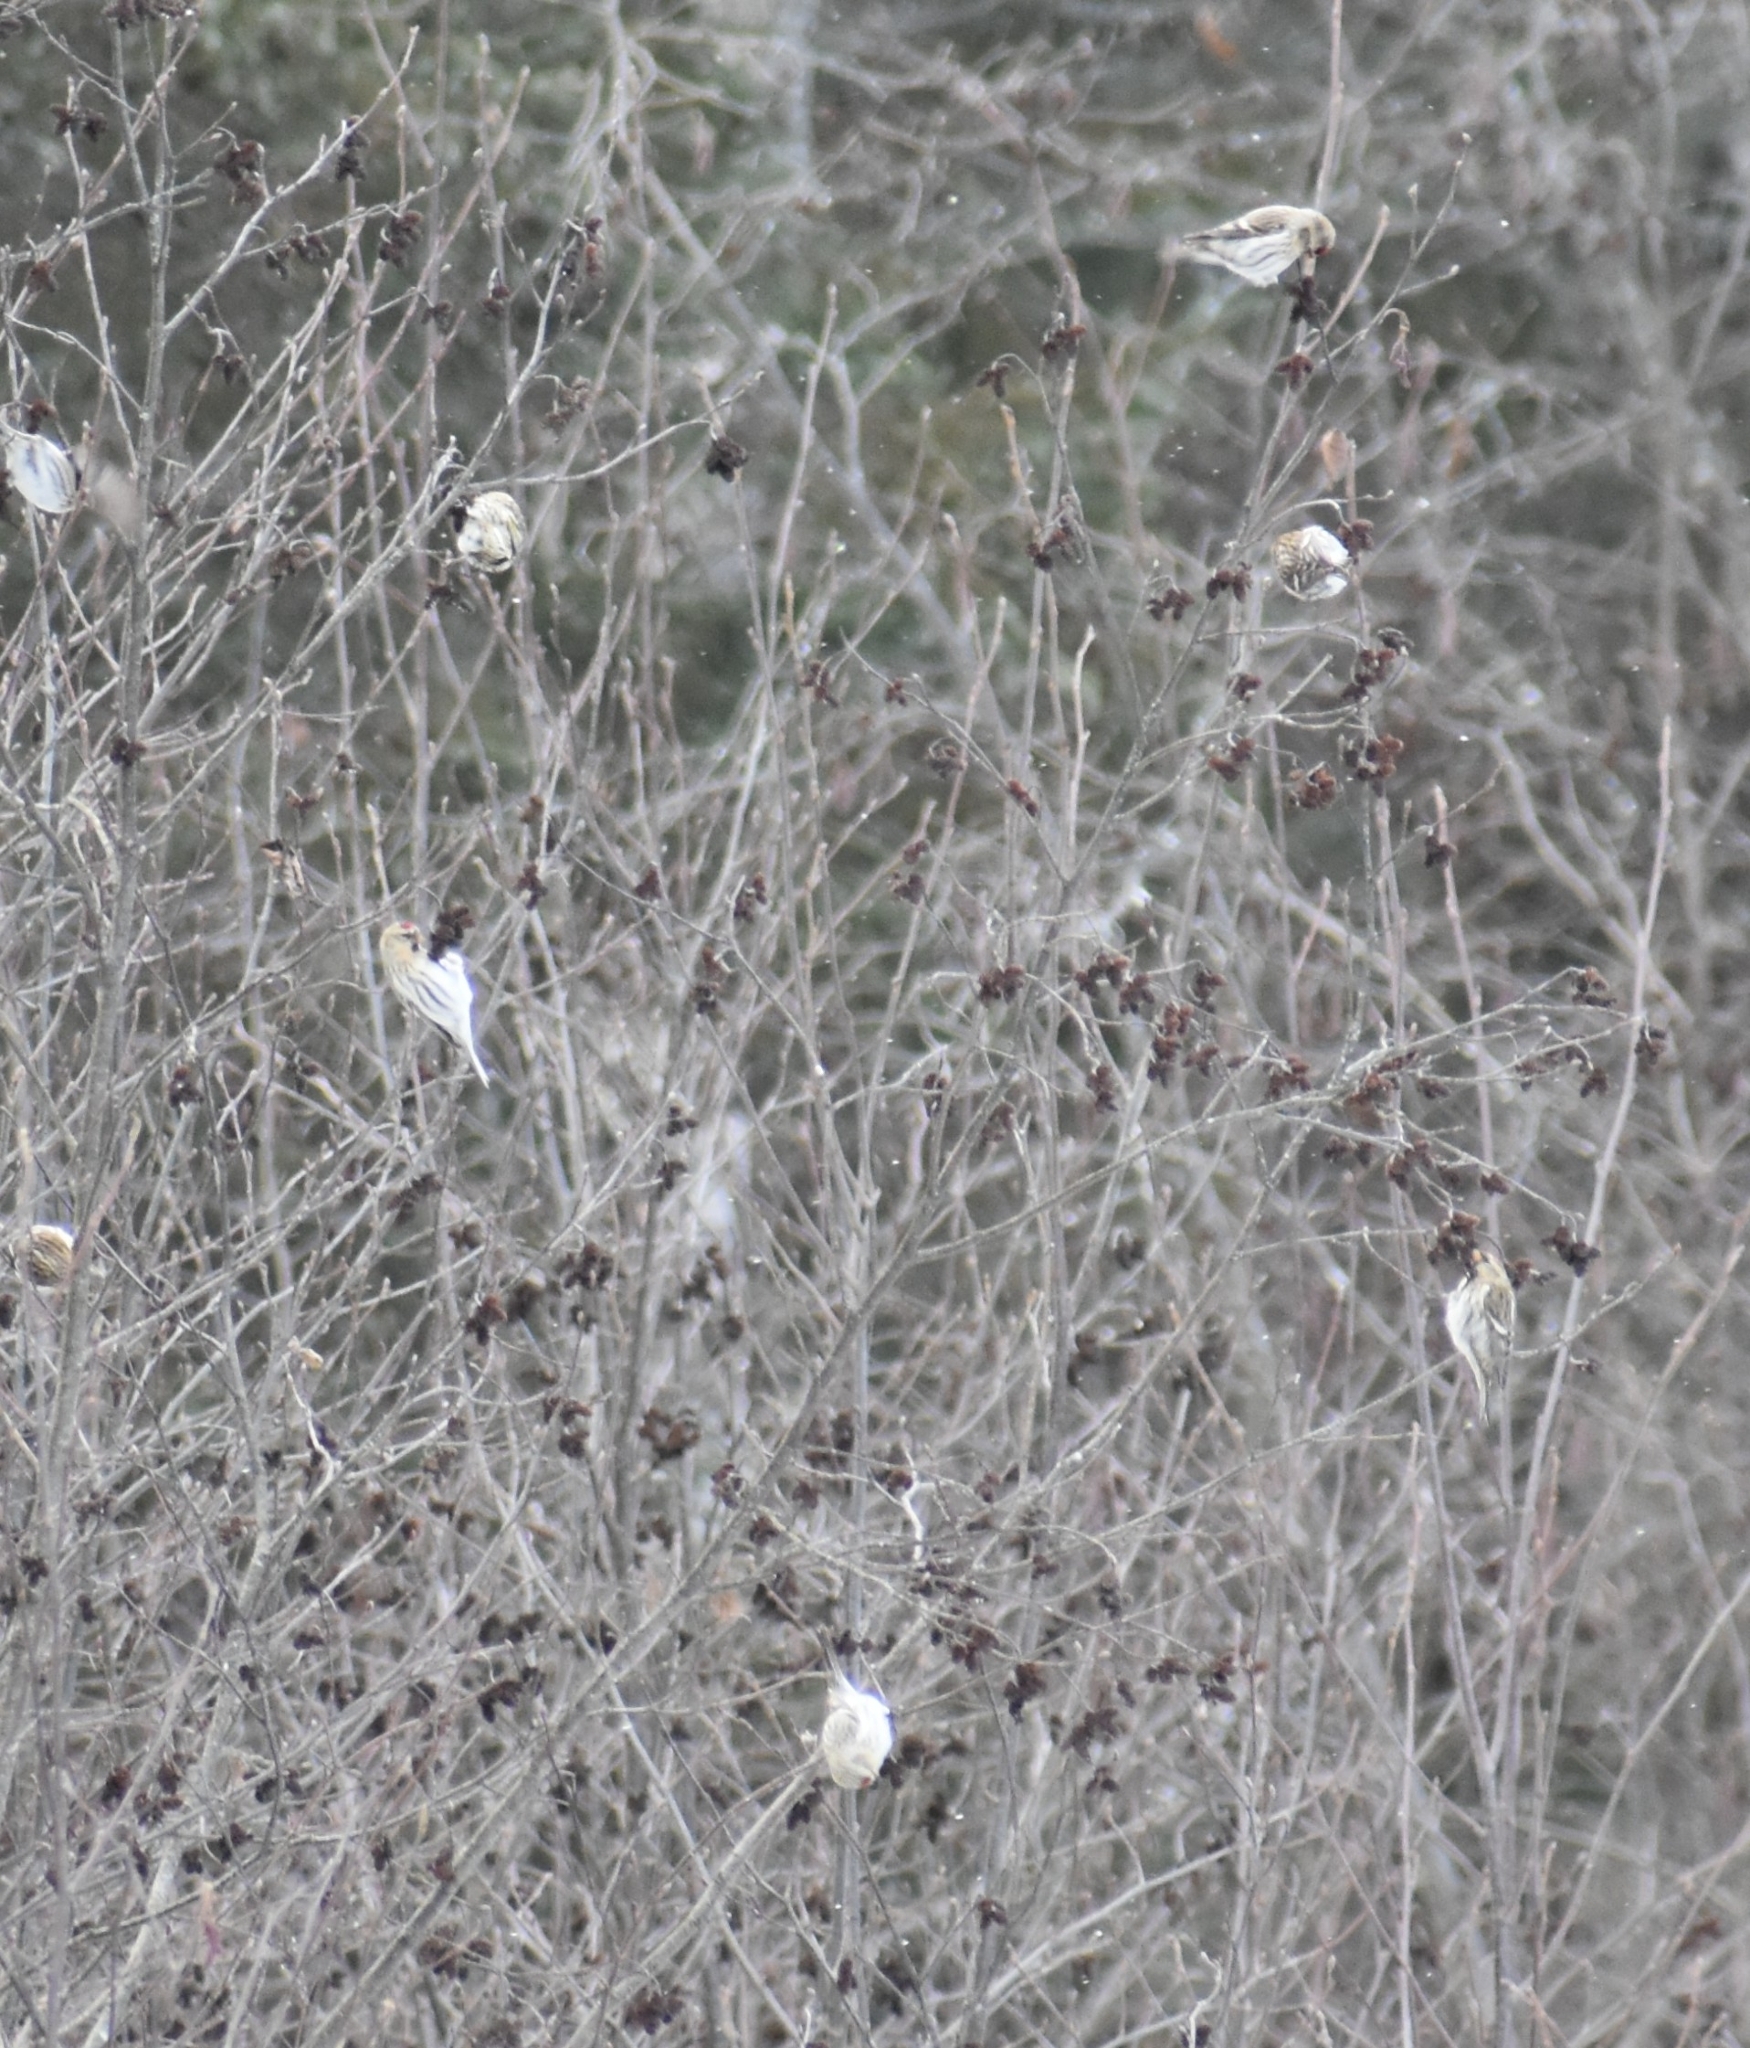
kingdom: Animalia
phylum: Chordata
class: Aves
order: Passeriformes
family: Fringillidae
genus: Acanthis
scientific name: Acanthis flammea
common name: Common redpoll
